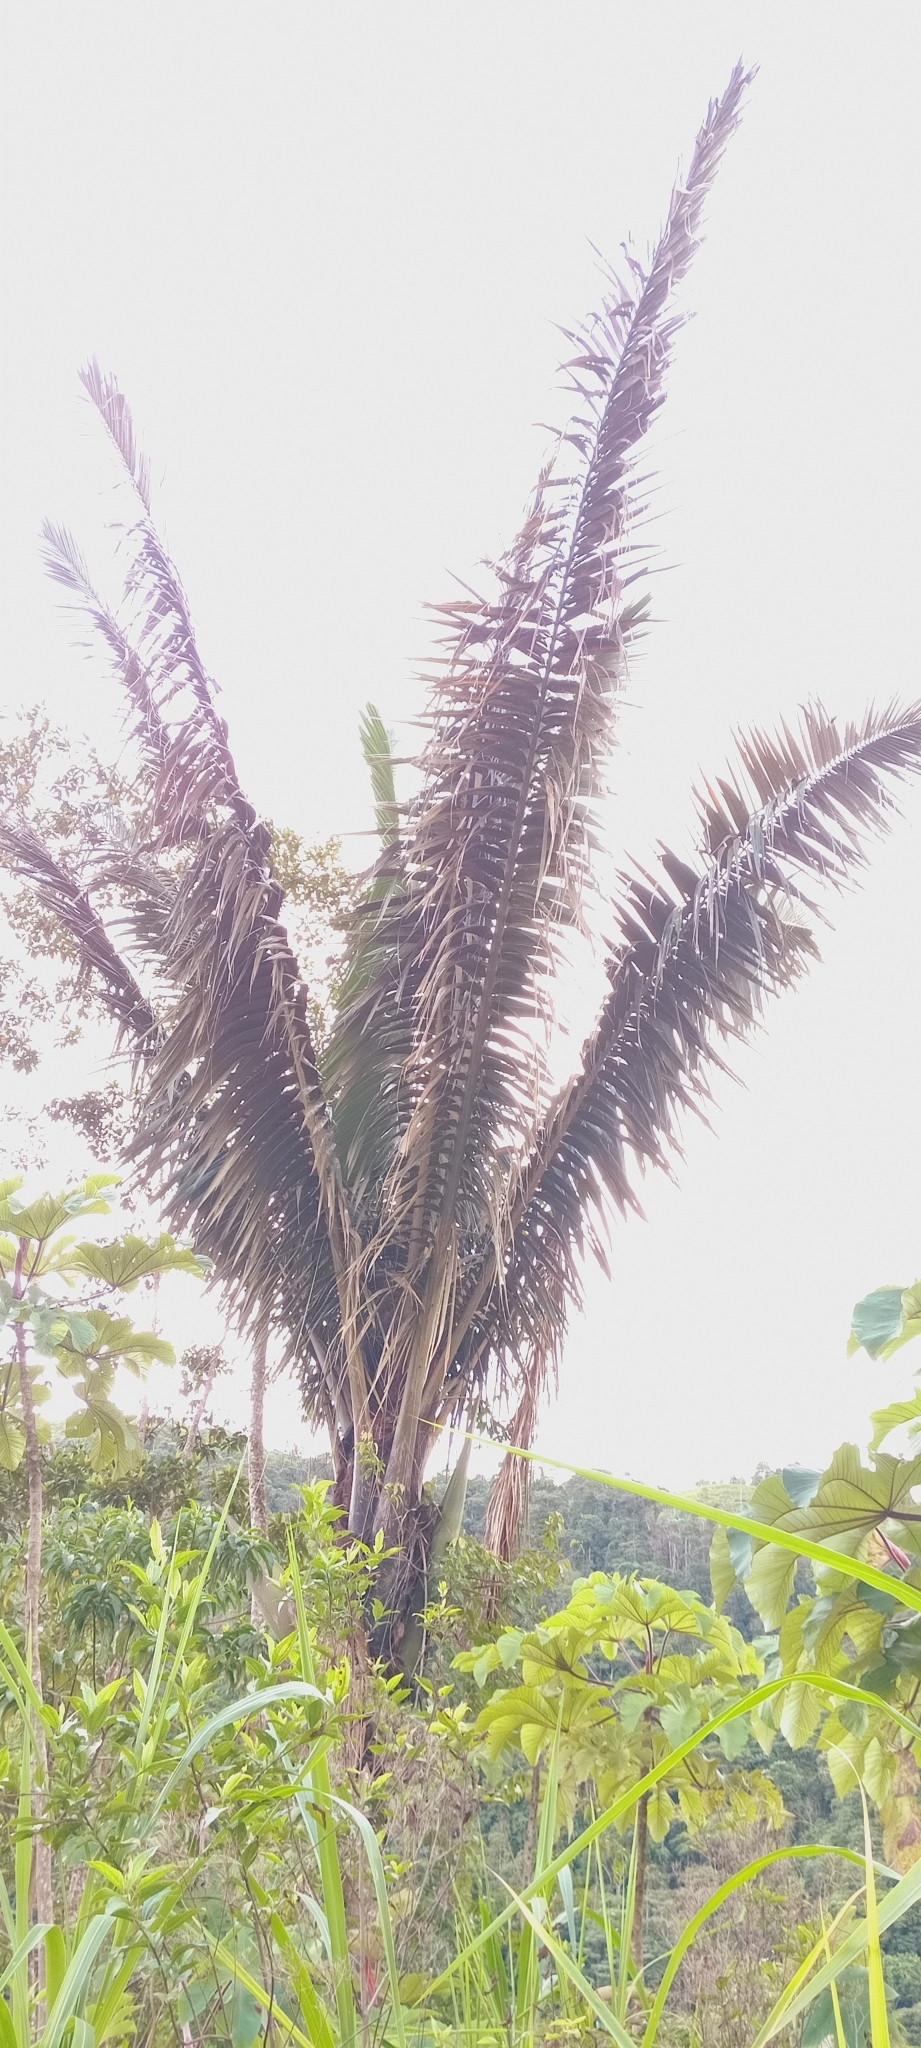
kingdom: Plantae
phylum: Tracheophyta
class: Liliopsida
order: Arecales
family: Arecaceae
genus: Oenocarpus
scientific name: Oenocarpus bataua
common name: Bataua palm
